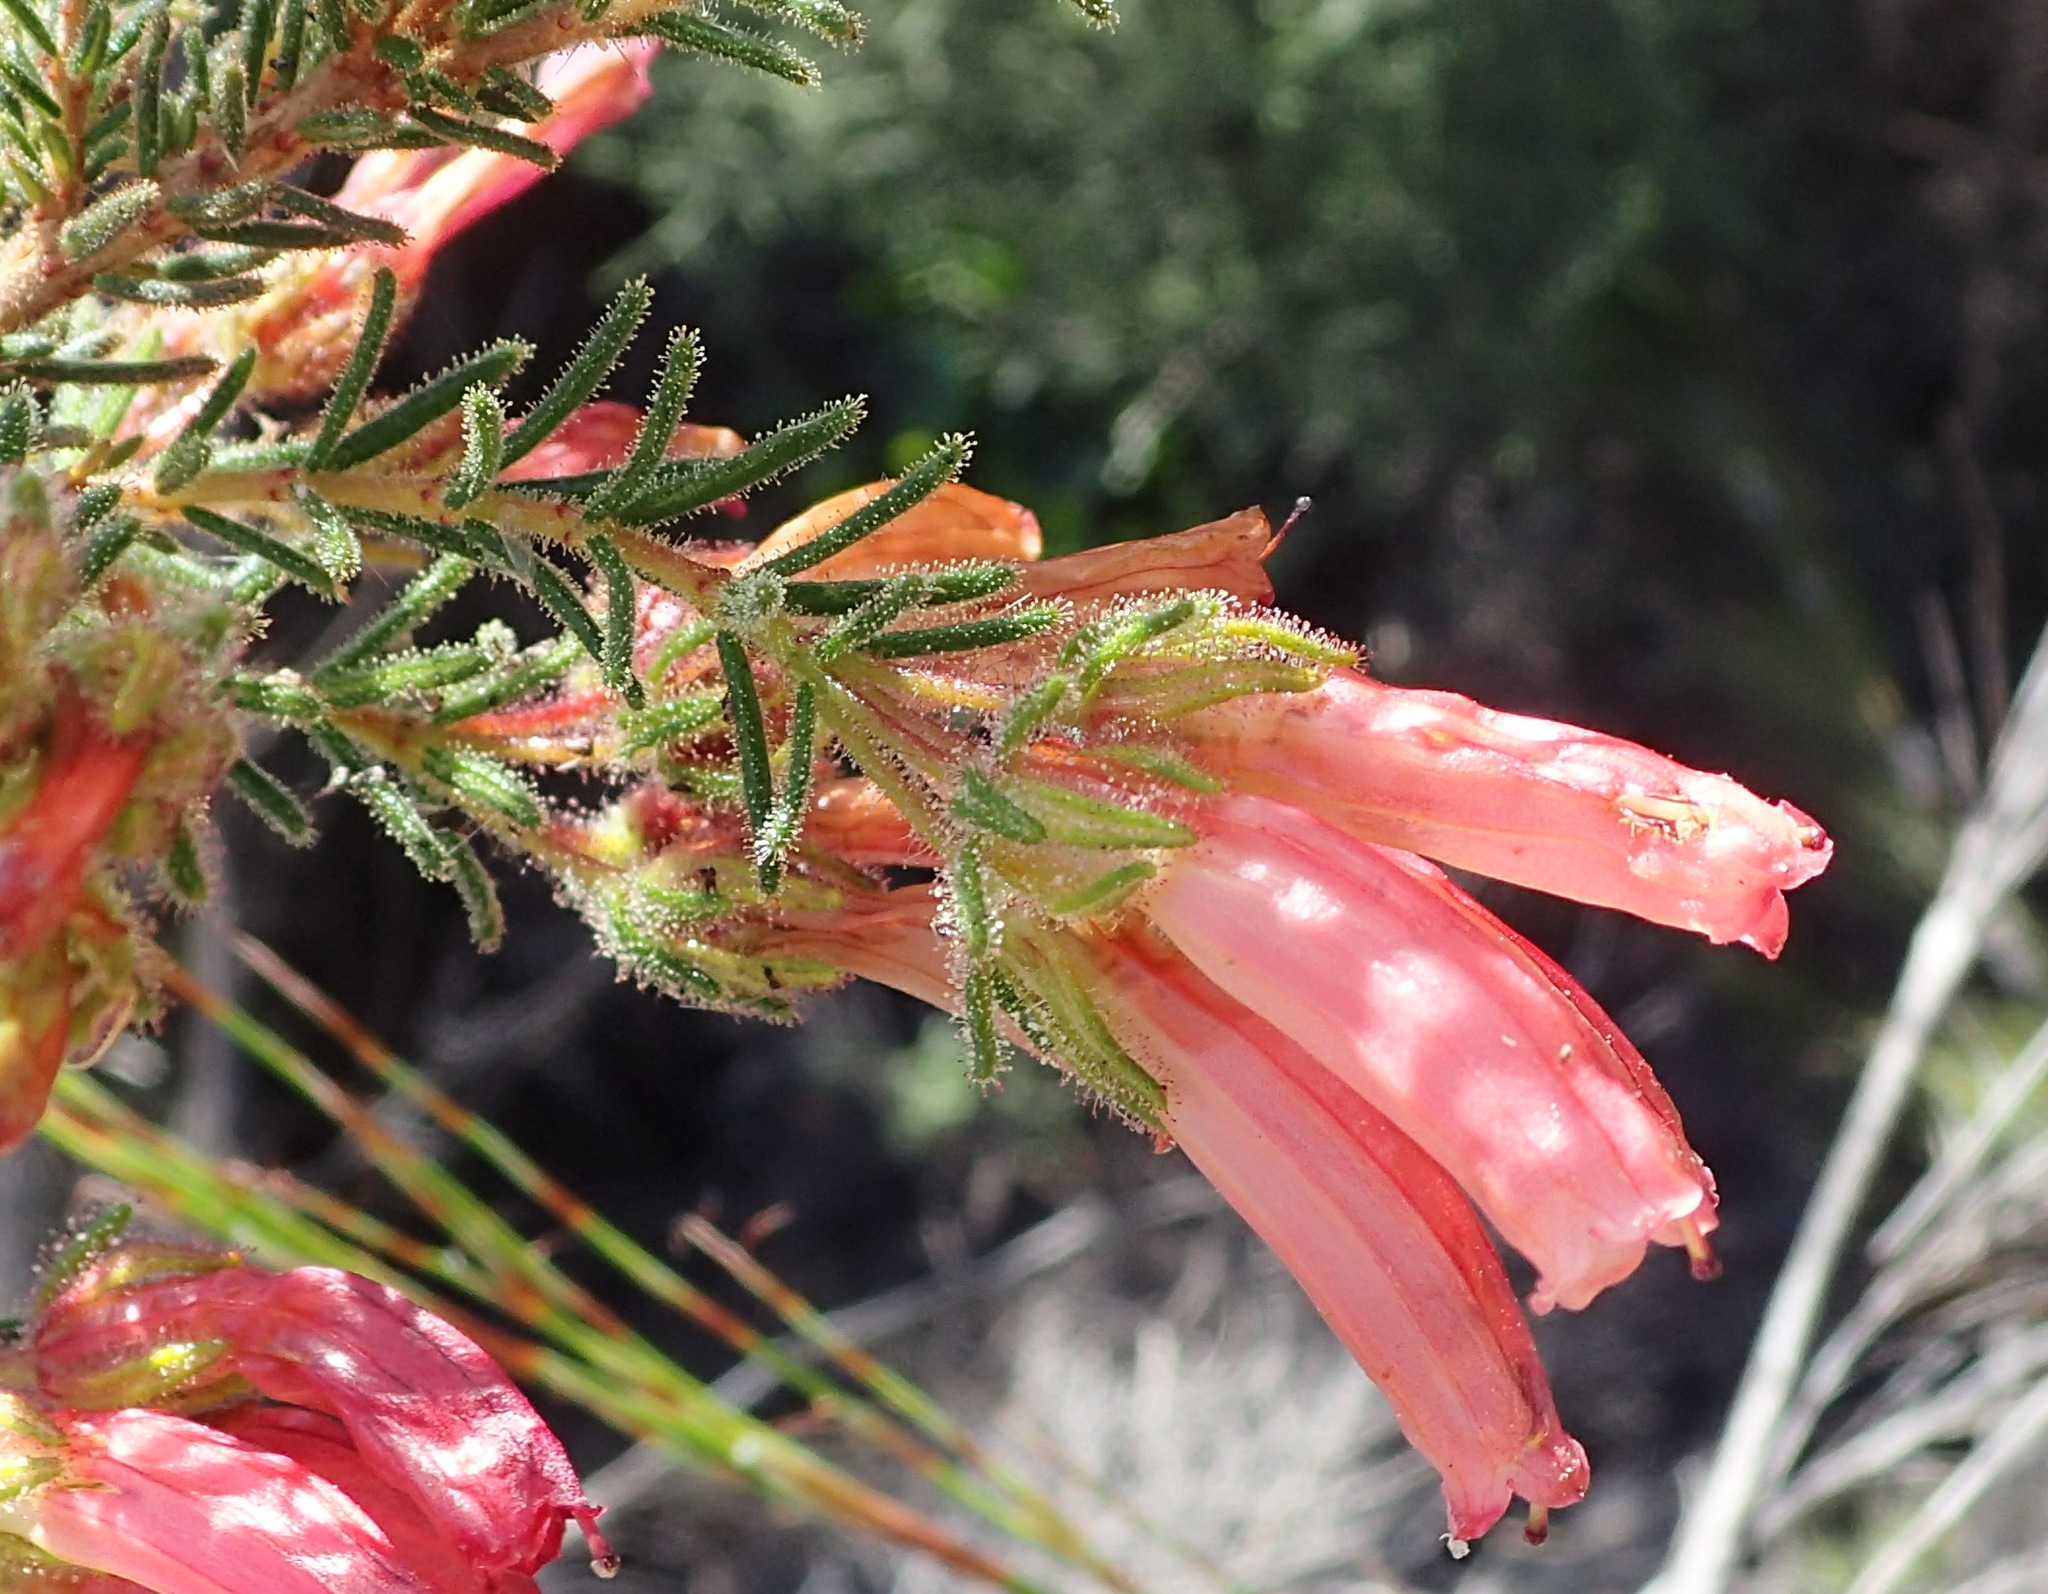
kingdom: Plantae
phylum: Tracheophyta
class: Magnoliopsida
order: Ericales
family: Ericaceae
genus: Erica
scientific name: Erica glandulosa
